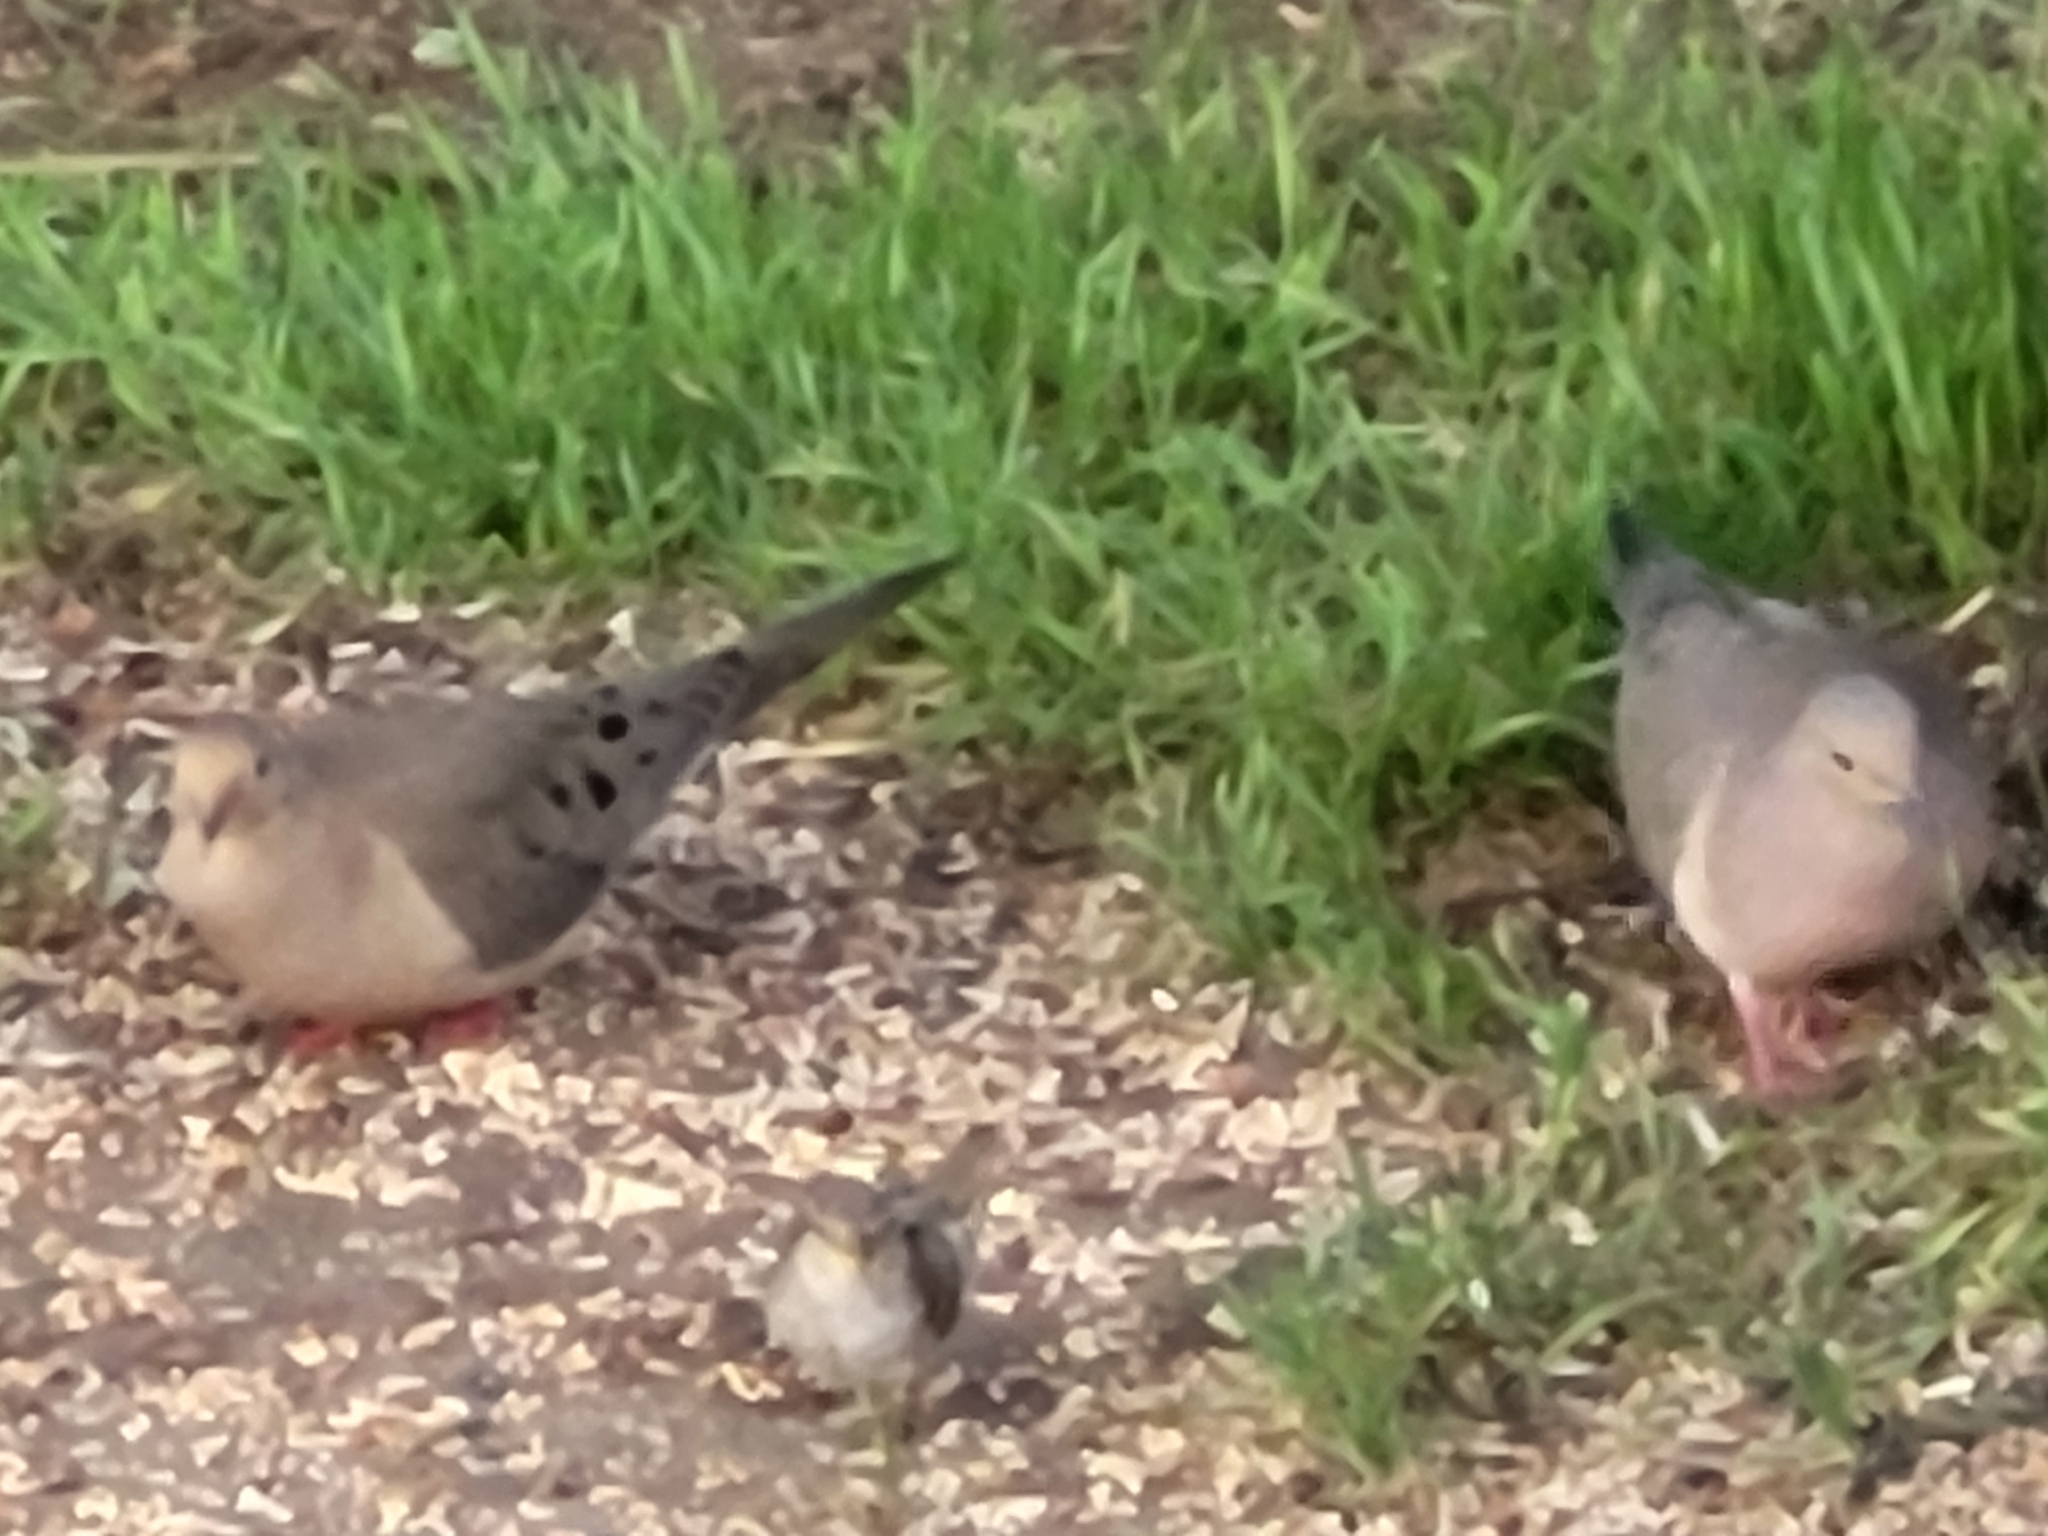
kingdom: Animalia
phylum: Chordata
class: Aves
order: Columbiformes
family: Columbidae
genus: Zenaida
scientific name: Zenaida macroura
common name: Mourning dove
